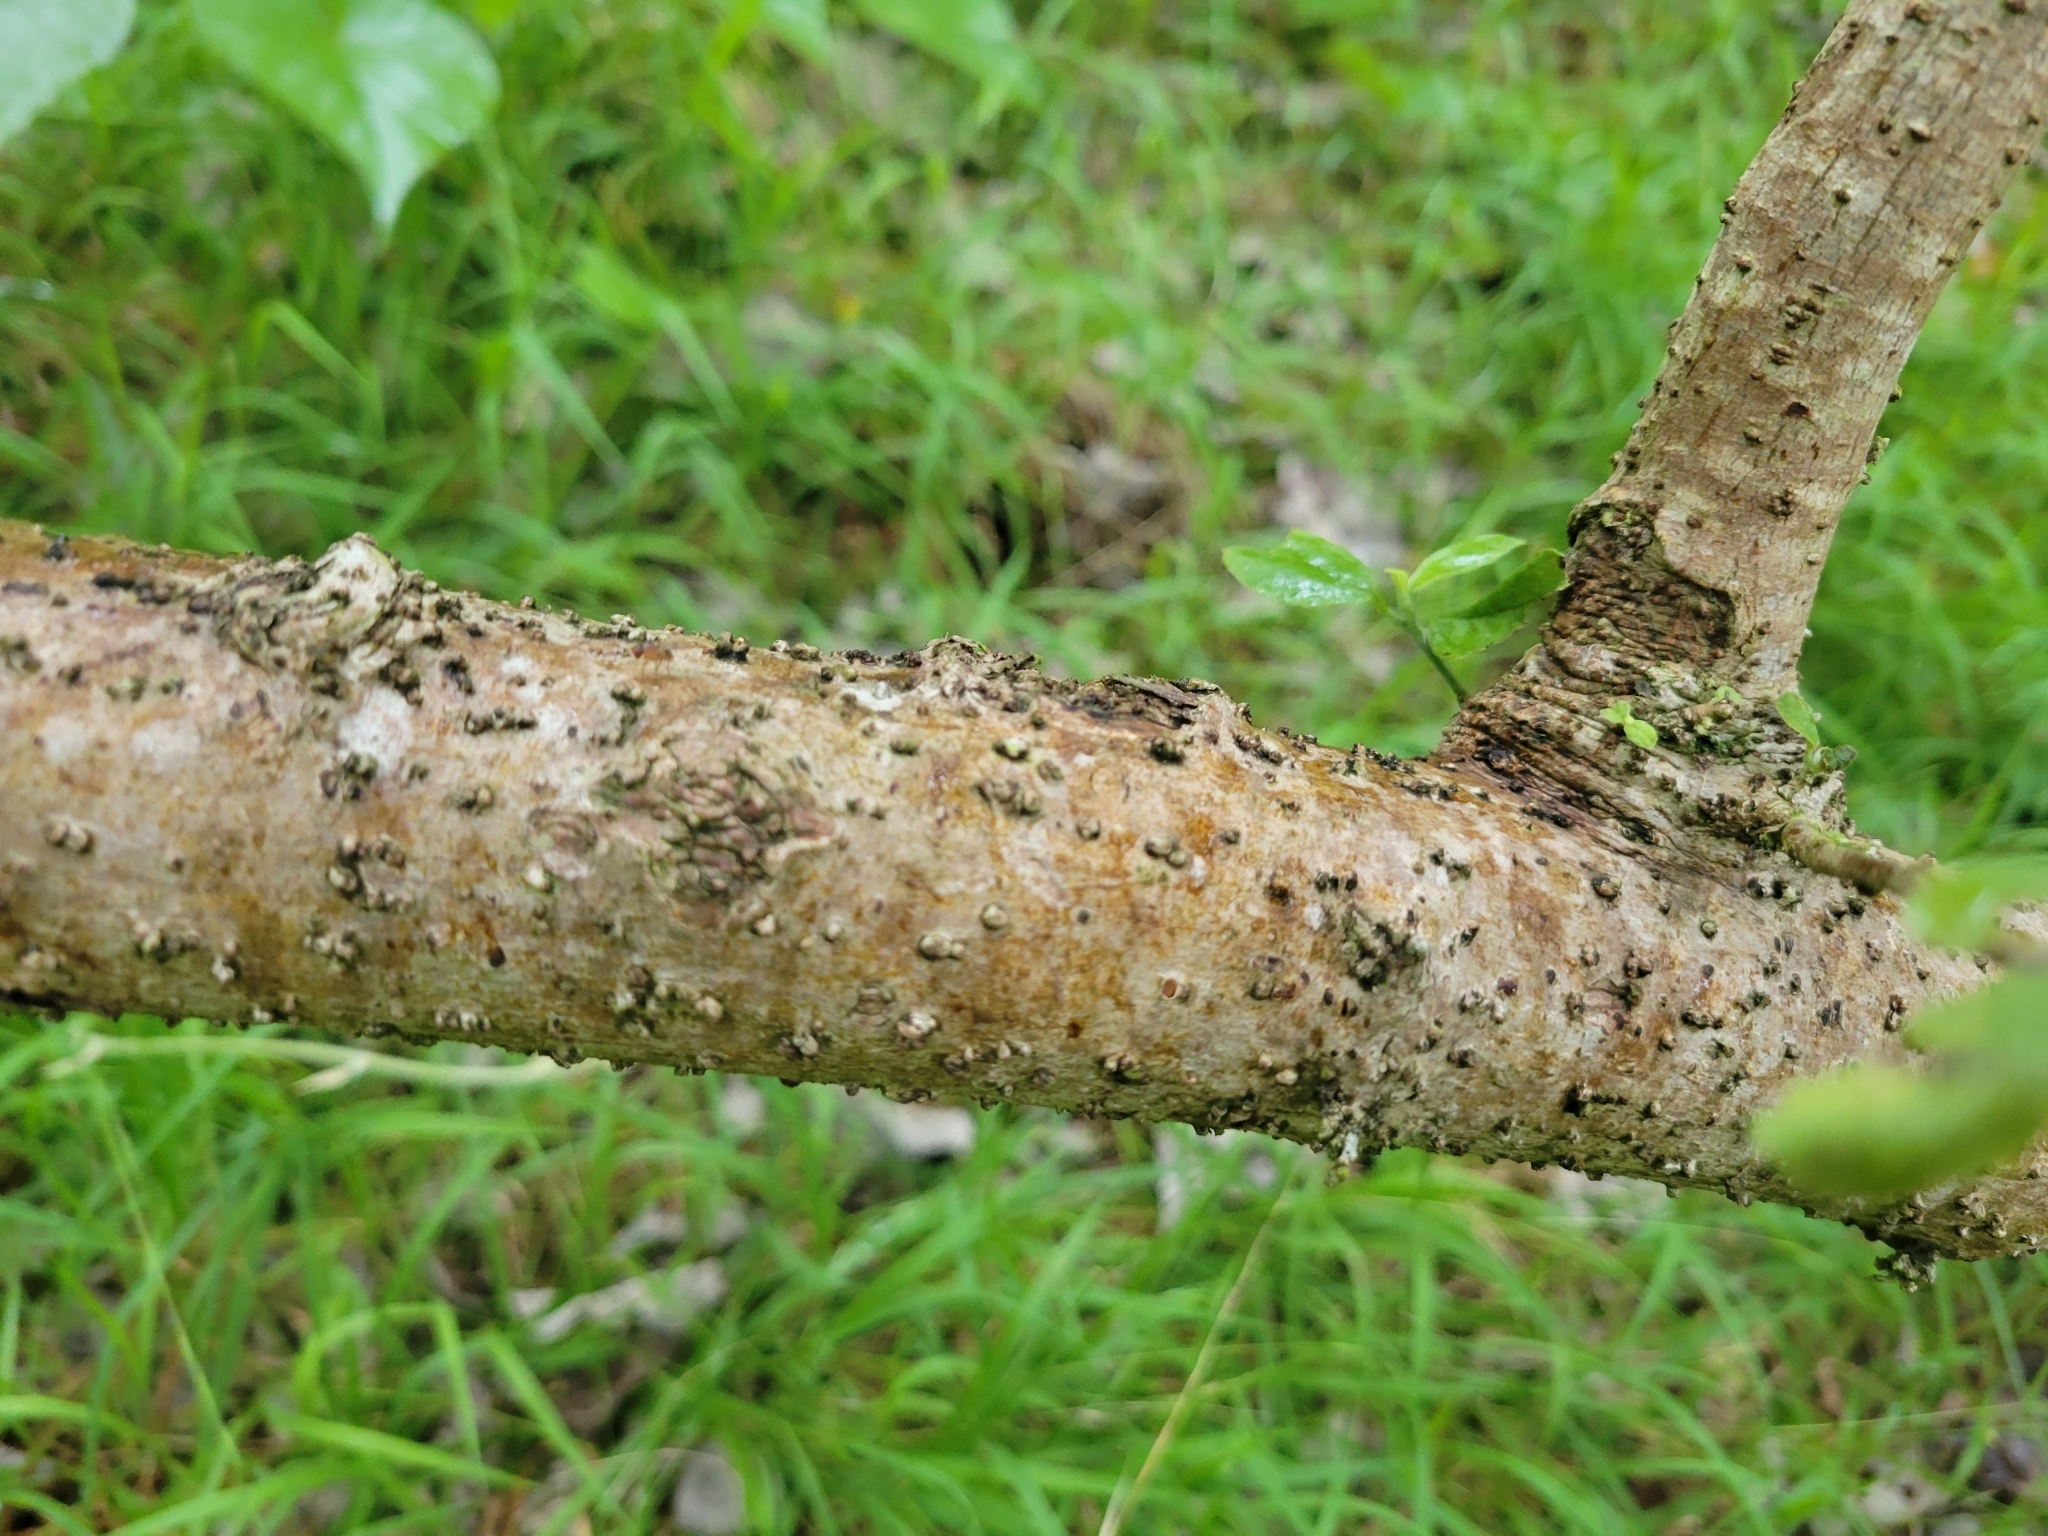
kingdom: Plantae
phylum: Tracheophyta
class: Magnoliopsida
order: Rosales
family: Urticaceae
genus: Pipturus
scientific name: Pipturus albidus
